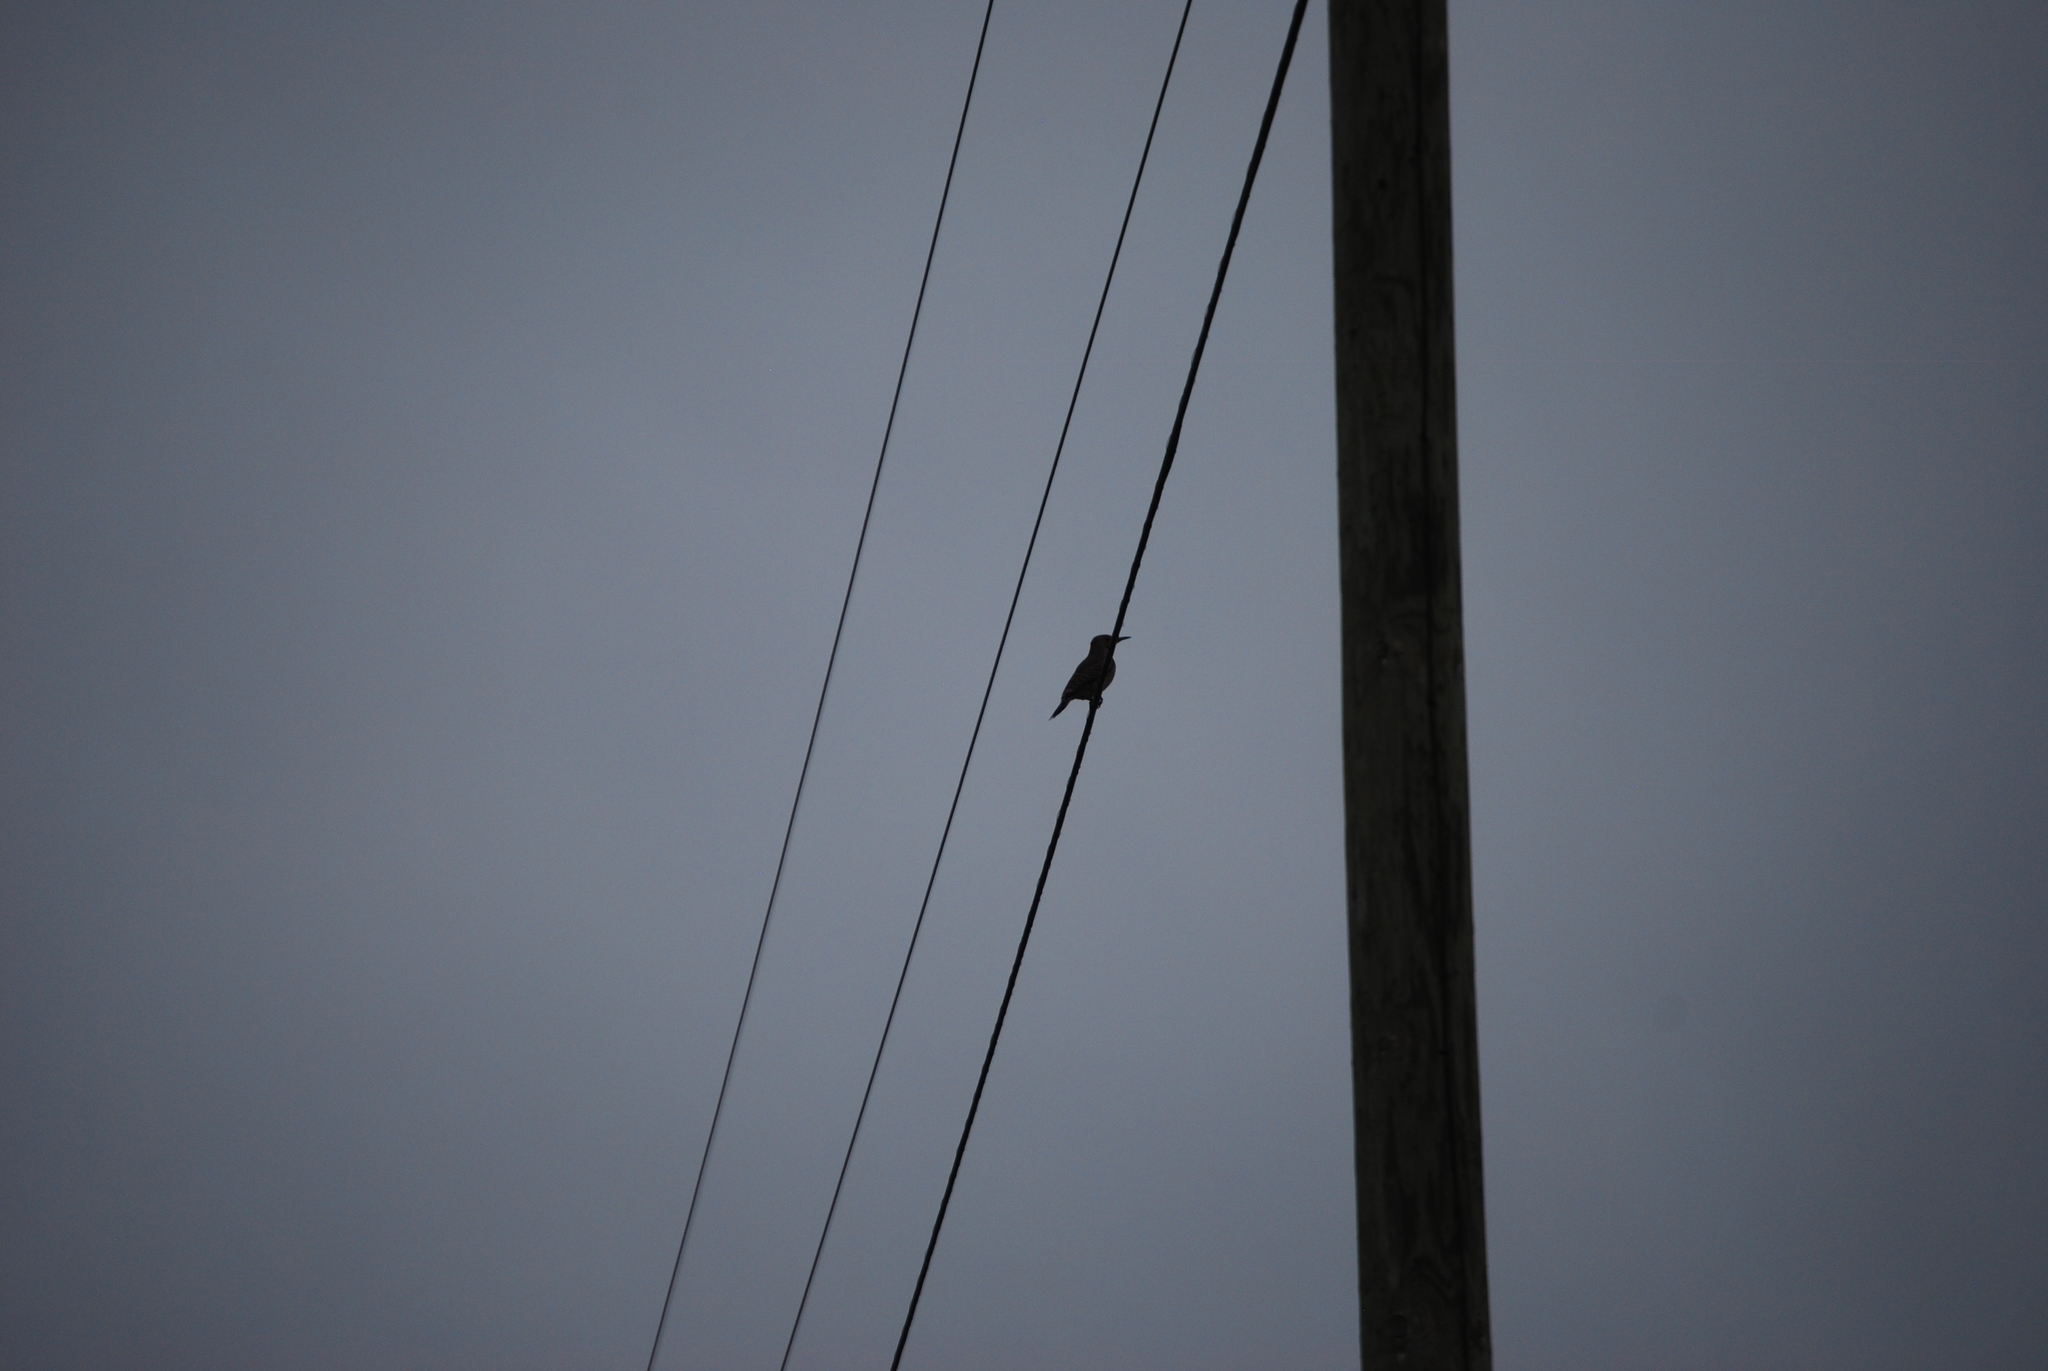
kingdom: Animalia
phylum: Chordata
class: Aves
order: Piciformes
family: Picidae
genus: Colaptes
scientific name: Colaptes auratus
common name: Northern flicker
